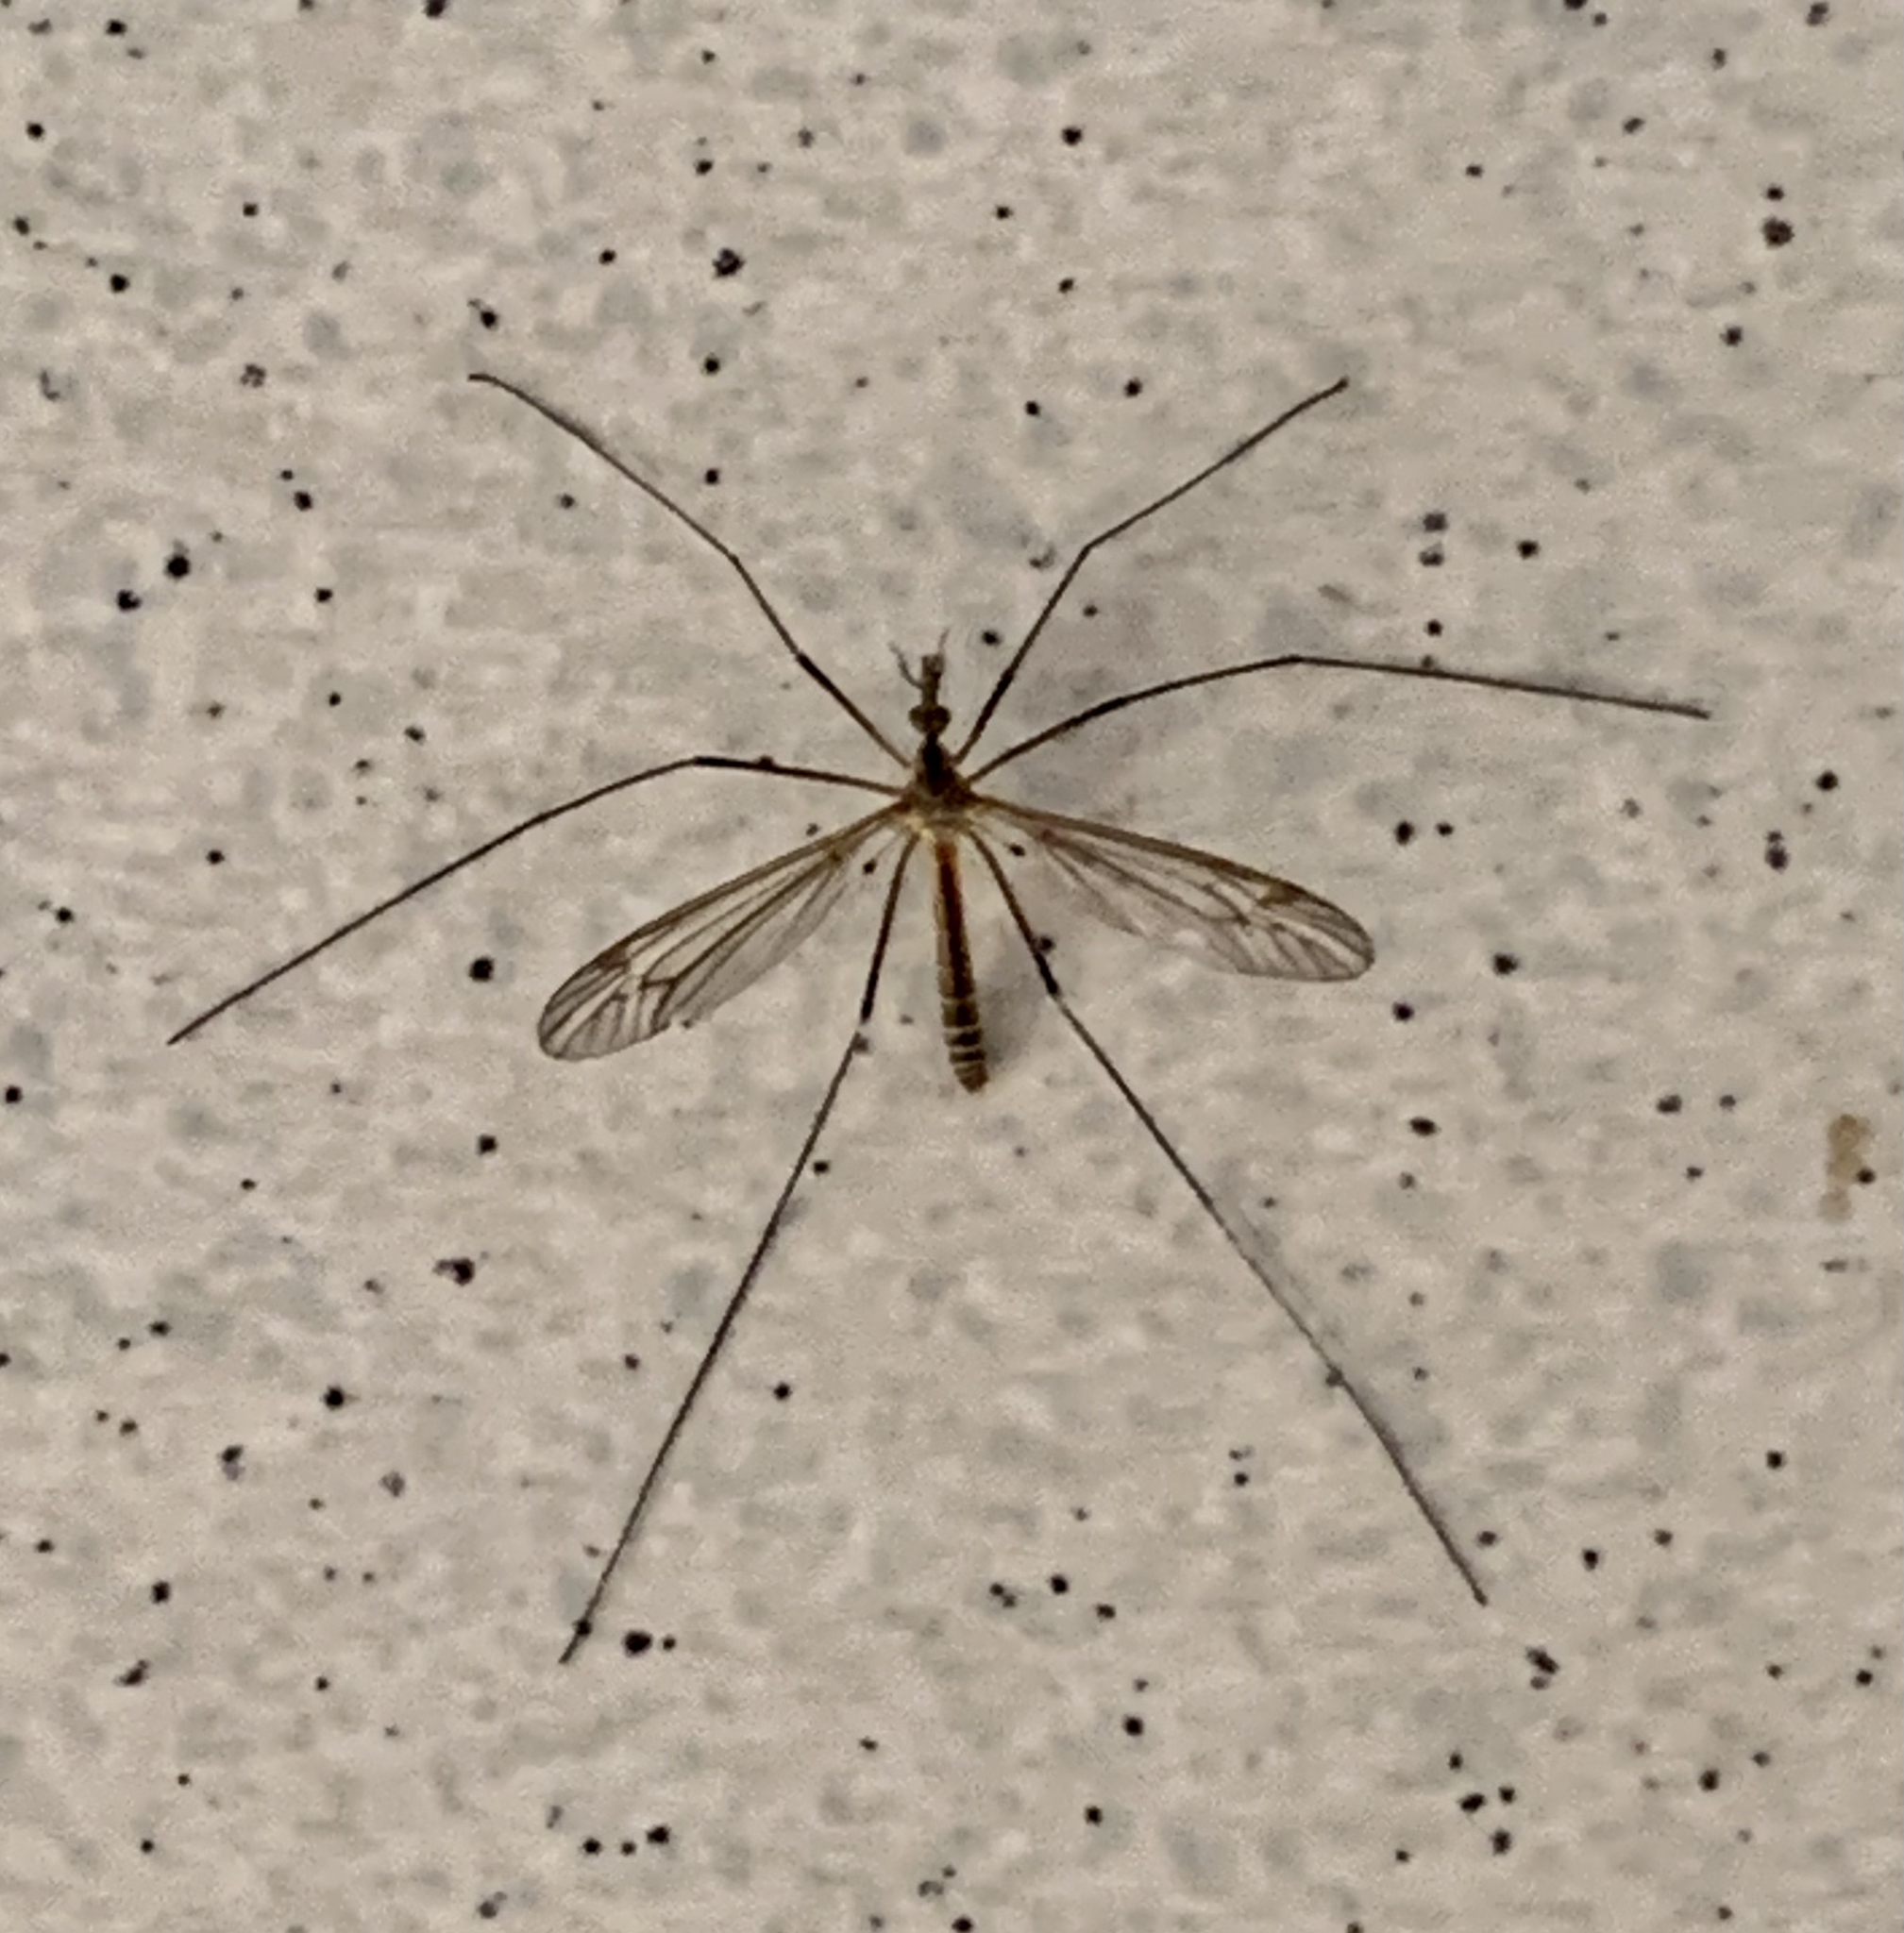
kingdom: Animalia
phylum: Arthropoda
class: Insecta
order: Diptera
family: Tipulidae
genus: Tipula
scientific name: Tipula vernalis
